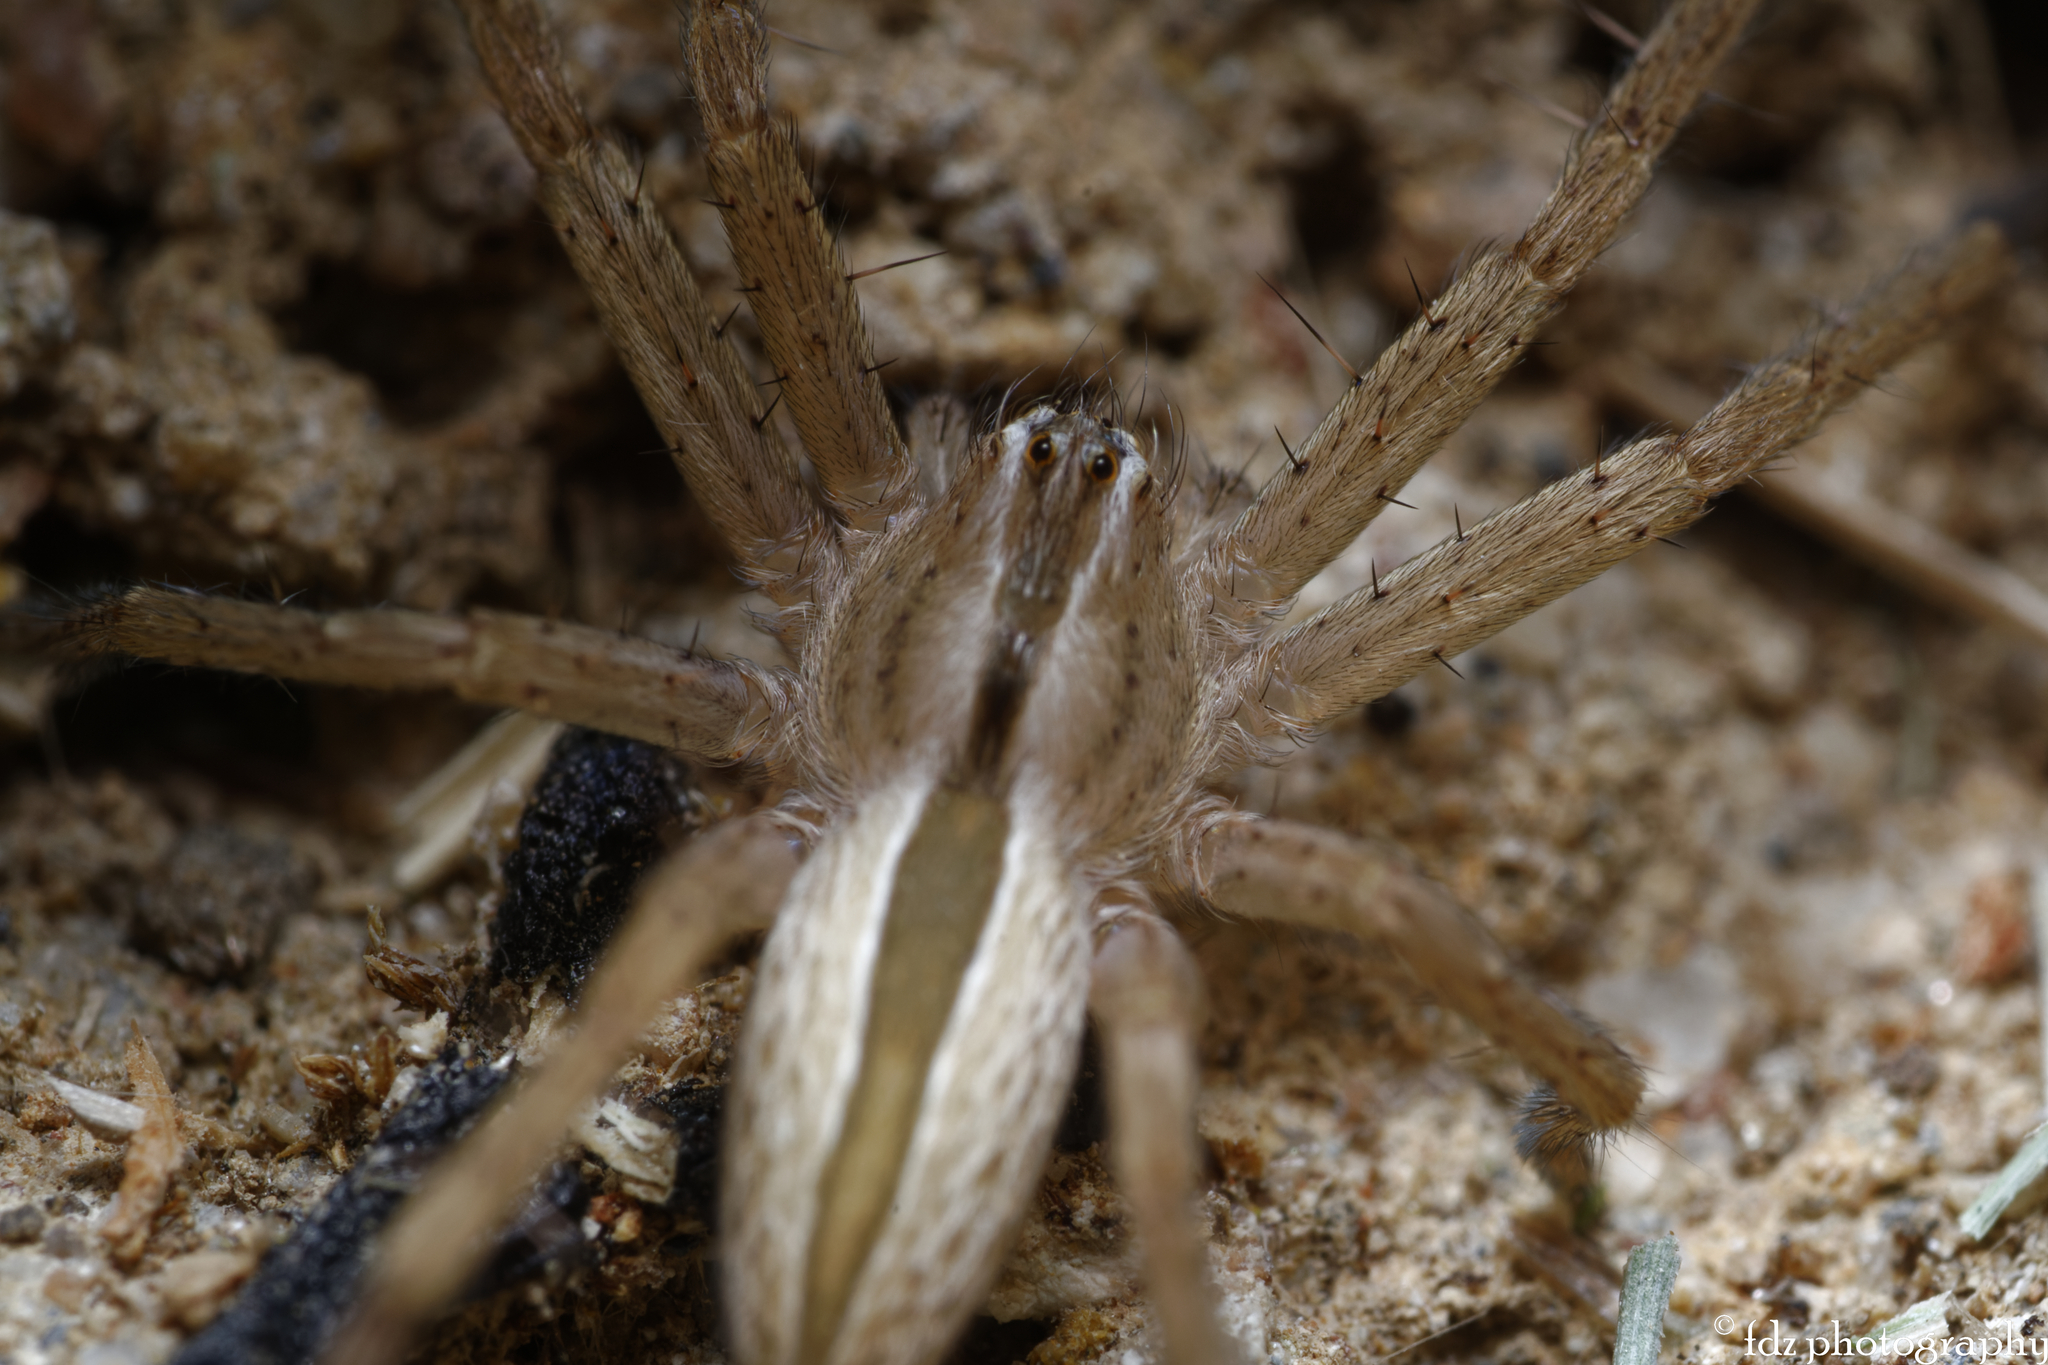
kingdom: Animalia
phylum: Arthropoda
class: Arachnida
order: Araneae
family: Sparassidae
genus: Micrommata
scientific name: Micrommata ligurina
